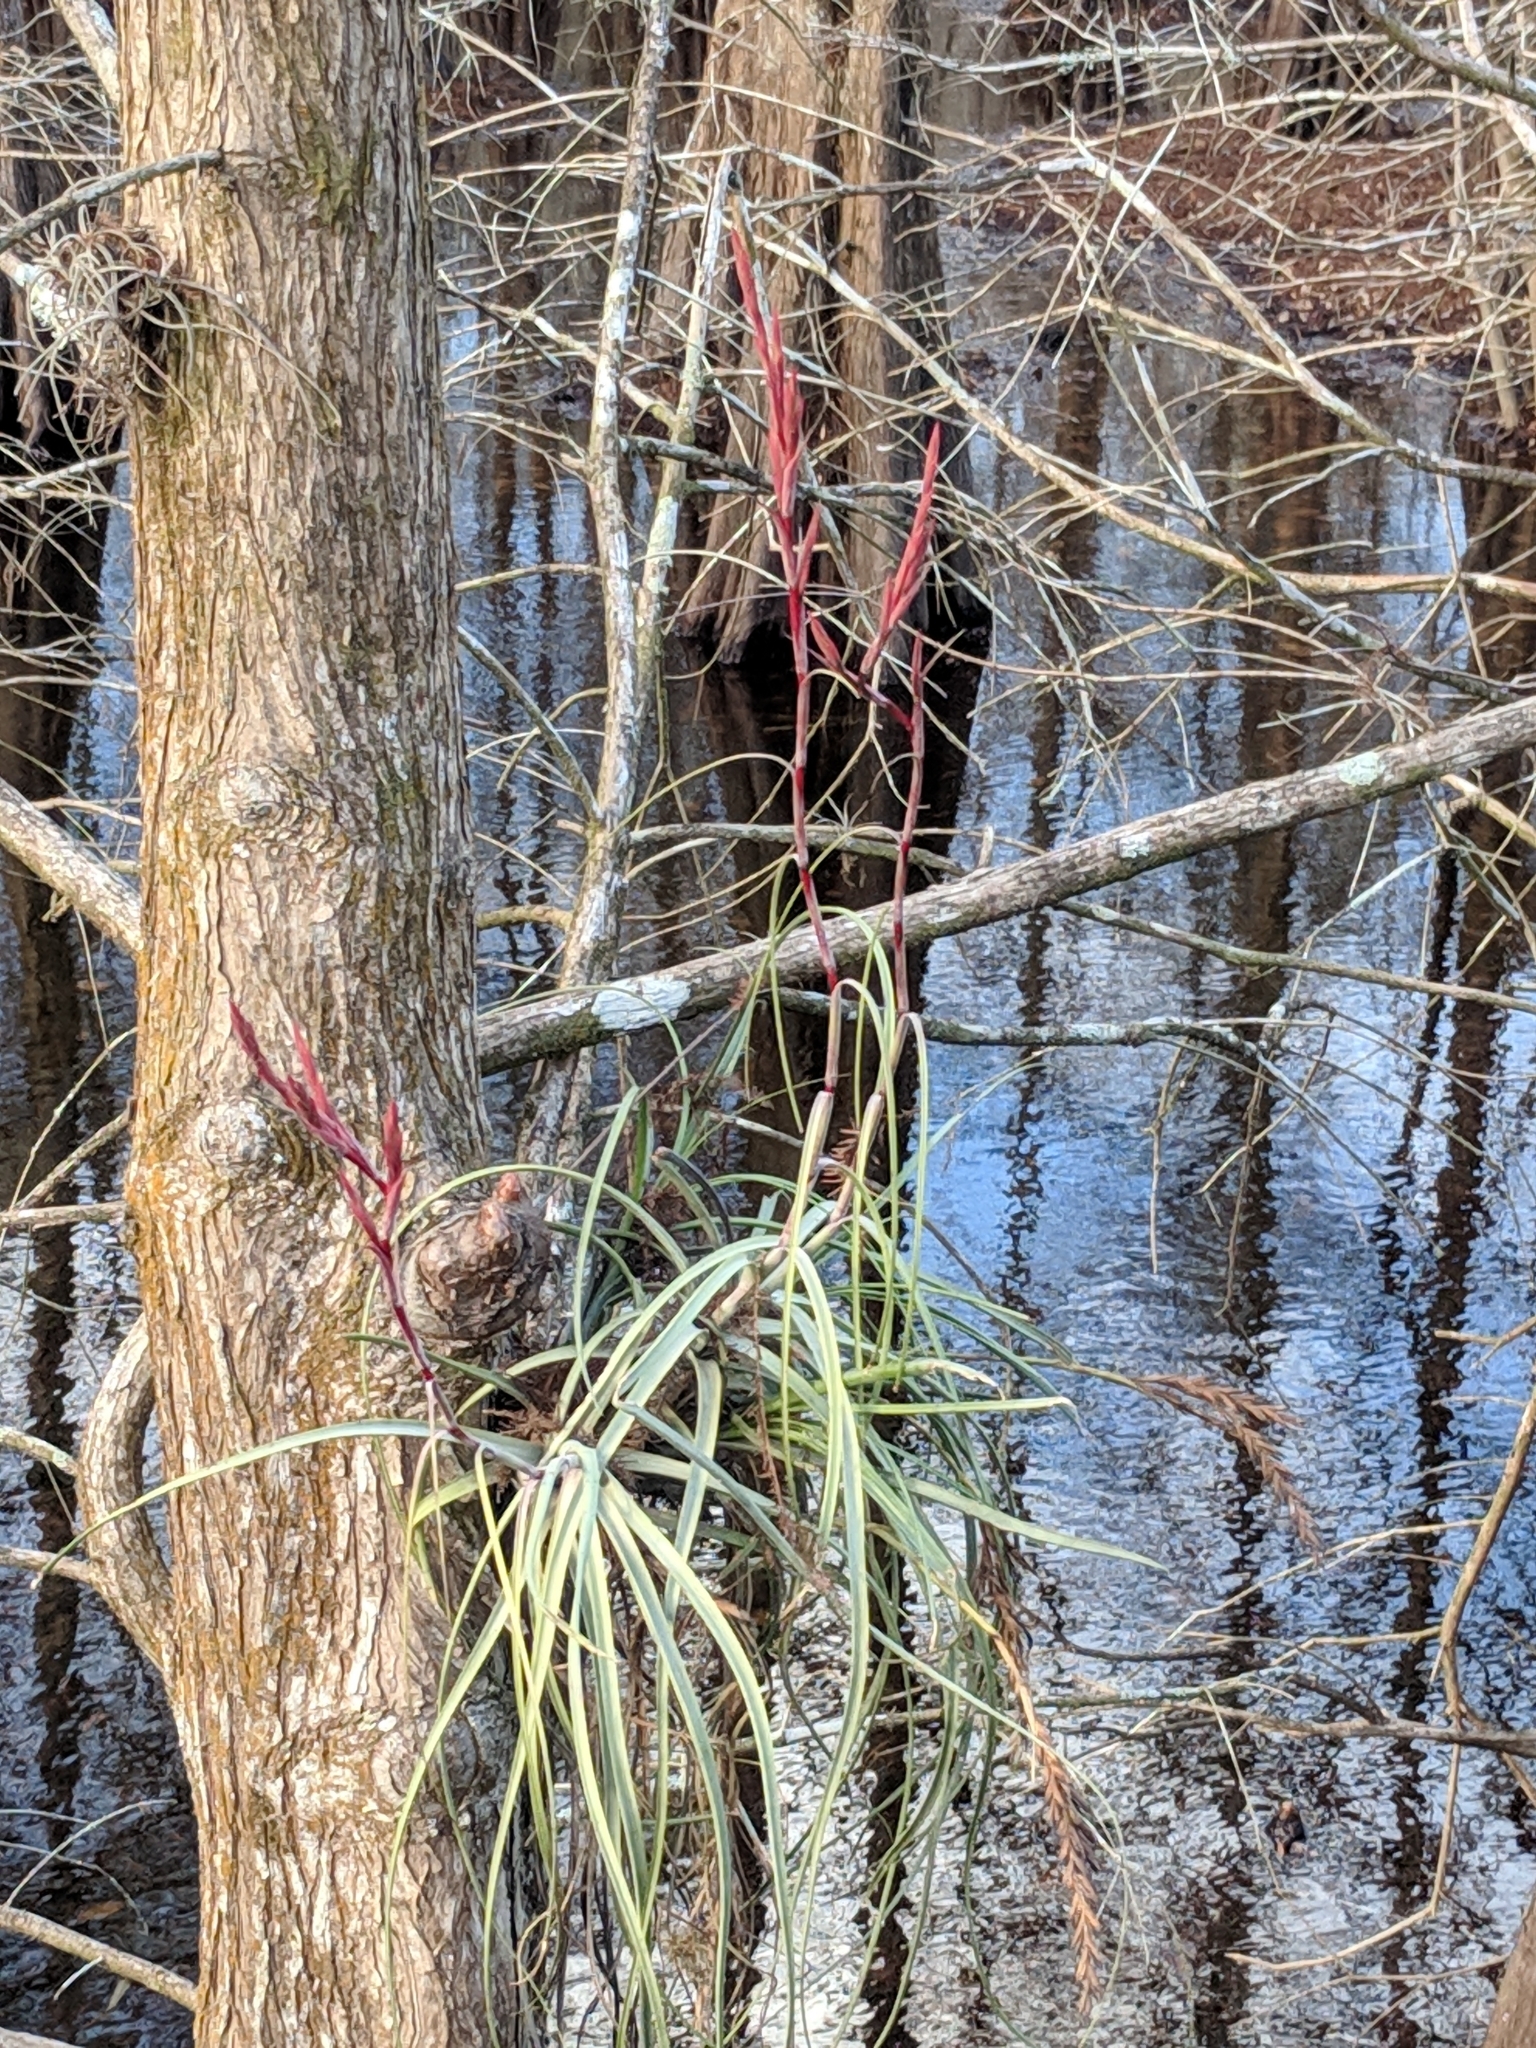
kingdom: Plantae
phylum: Tracheophyta
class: Liliopsida
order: Poales
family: Bromeliaceae
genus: Tillandsia
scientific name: Tillandsia balbisiana
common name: Northern needleleaf
